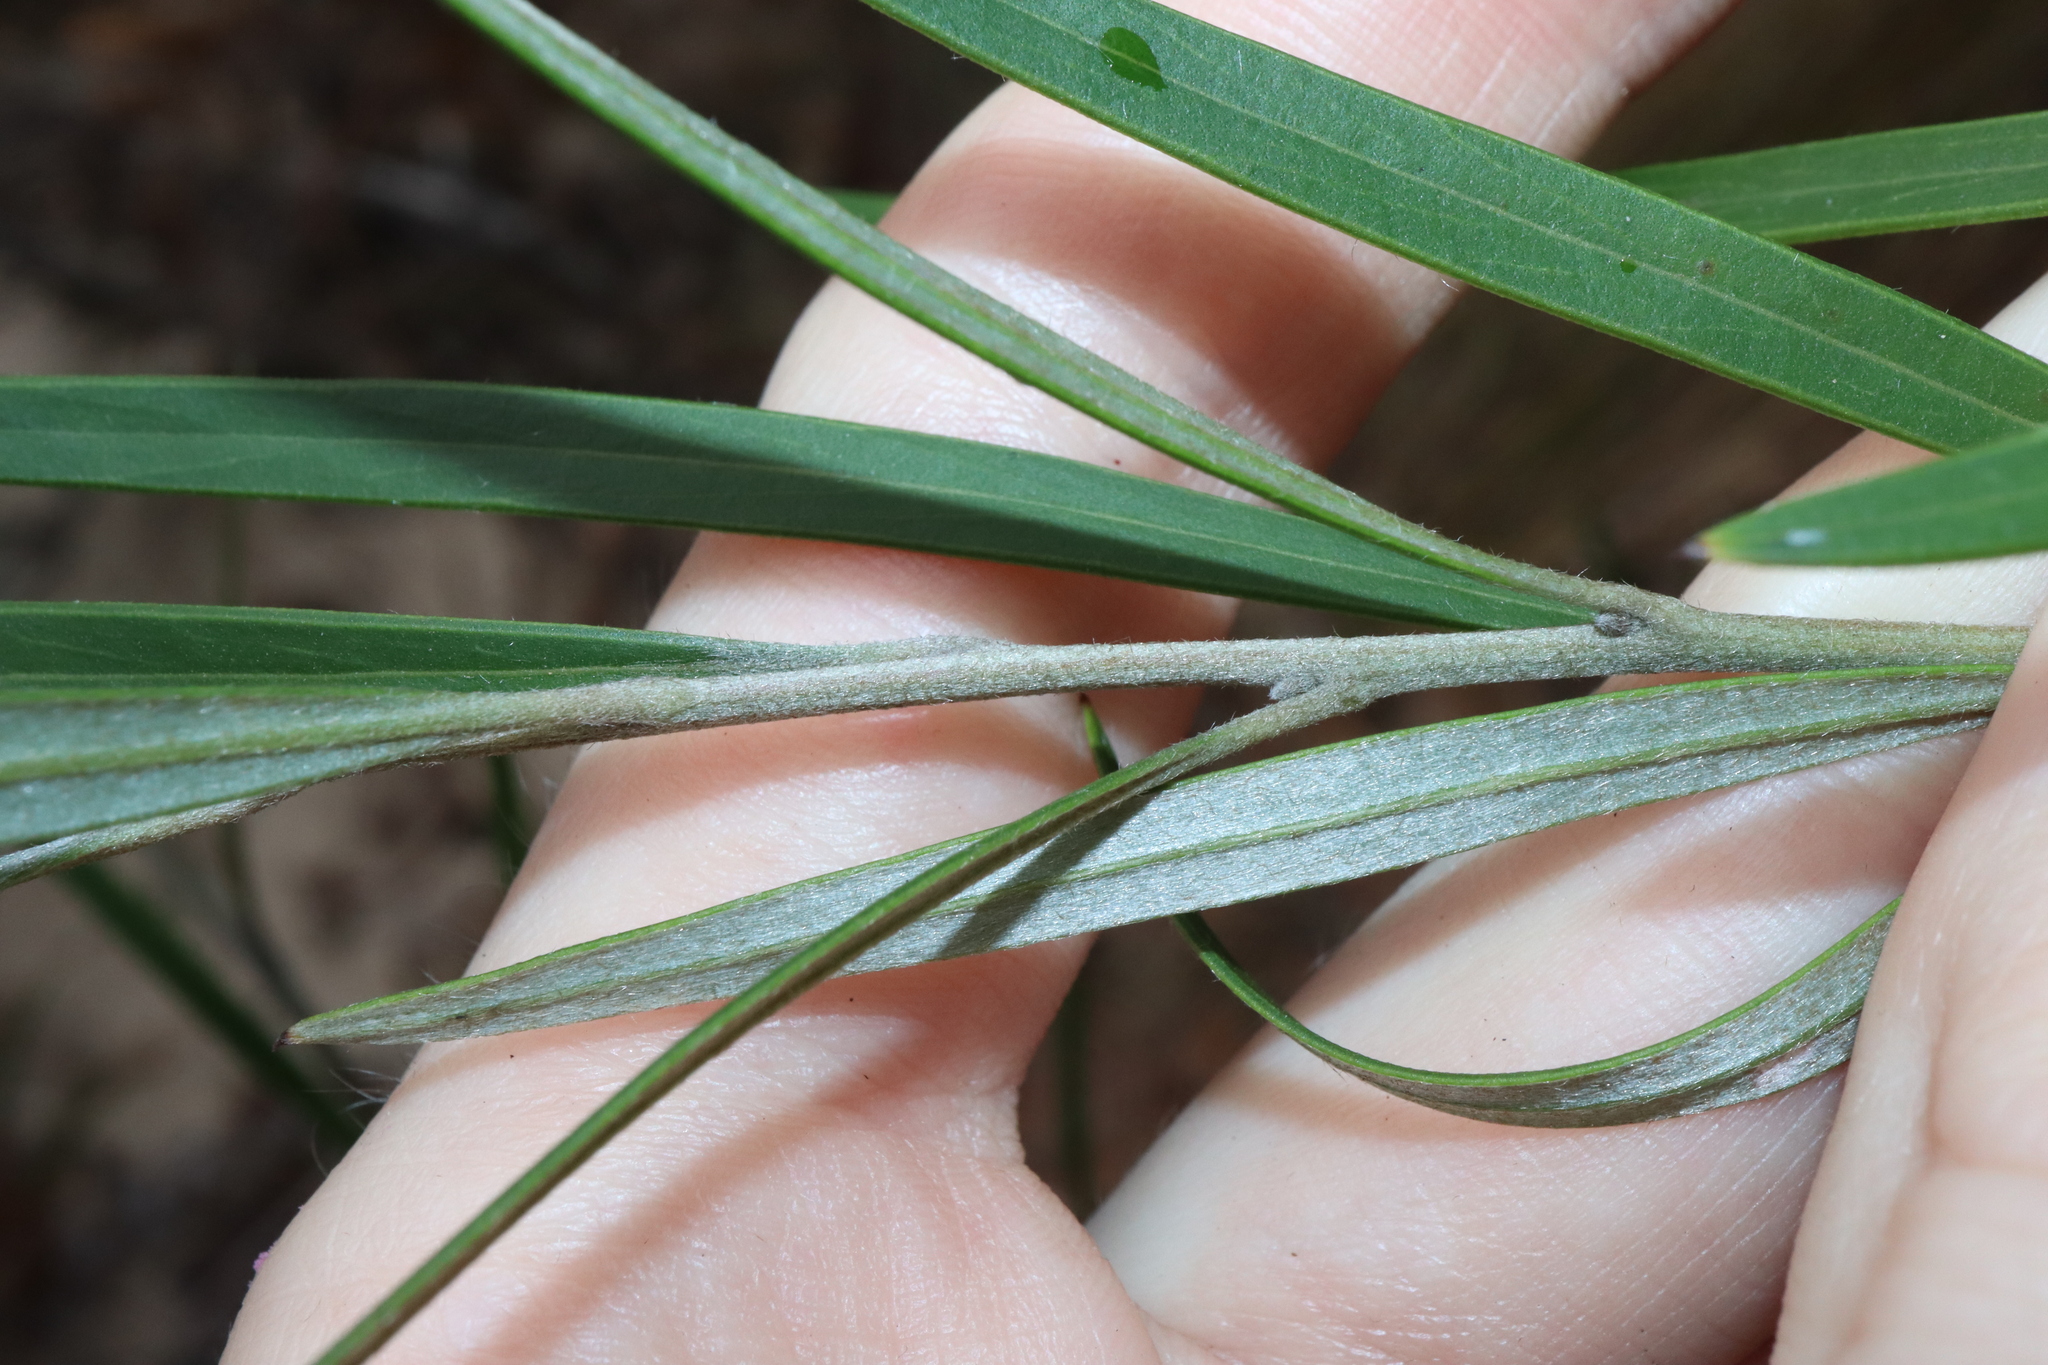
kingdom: Plantae
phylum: Tracheophyta
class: Magnoliopsida
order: Proteales
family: Proteaceae
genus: Grevillea
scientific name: Grevillea oleoides
